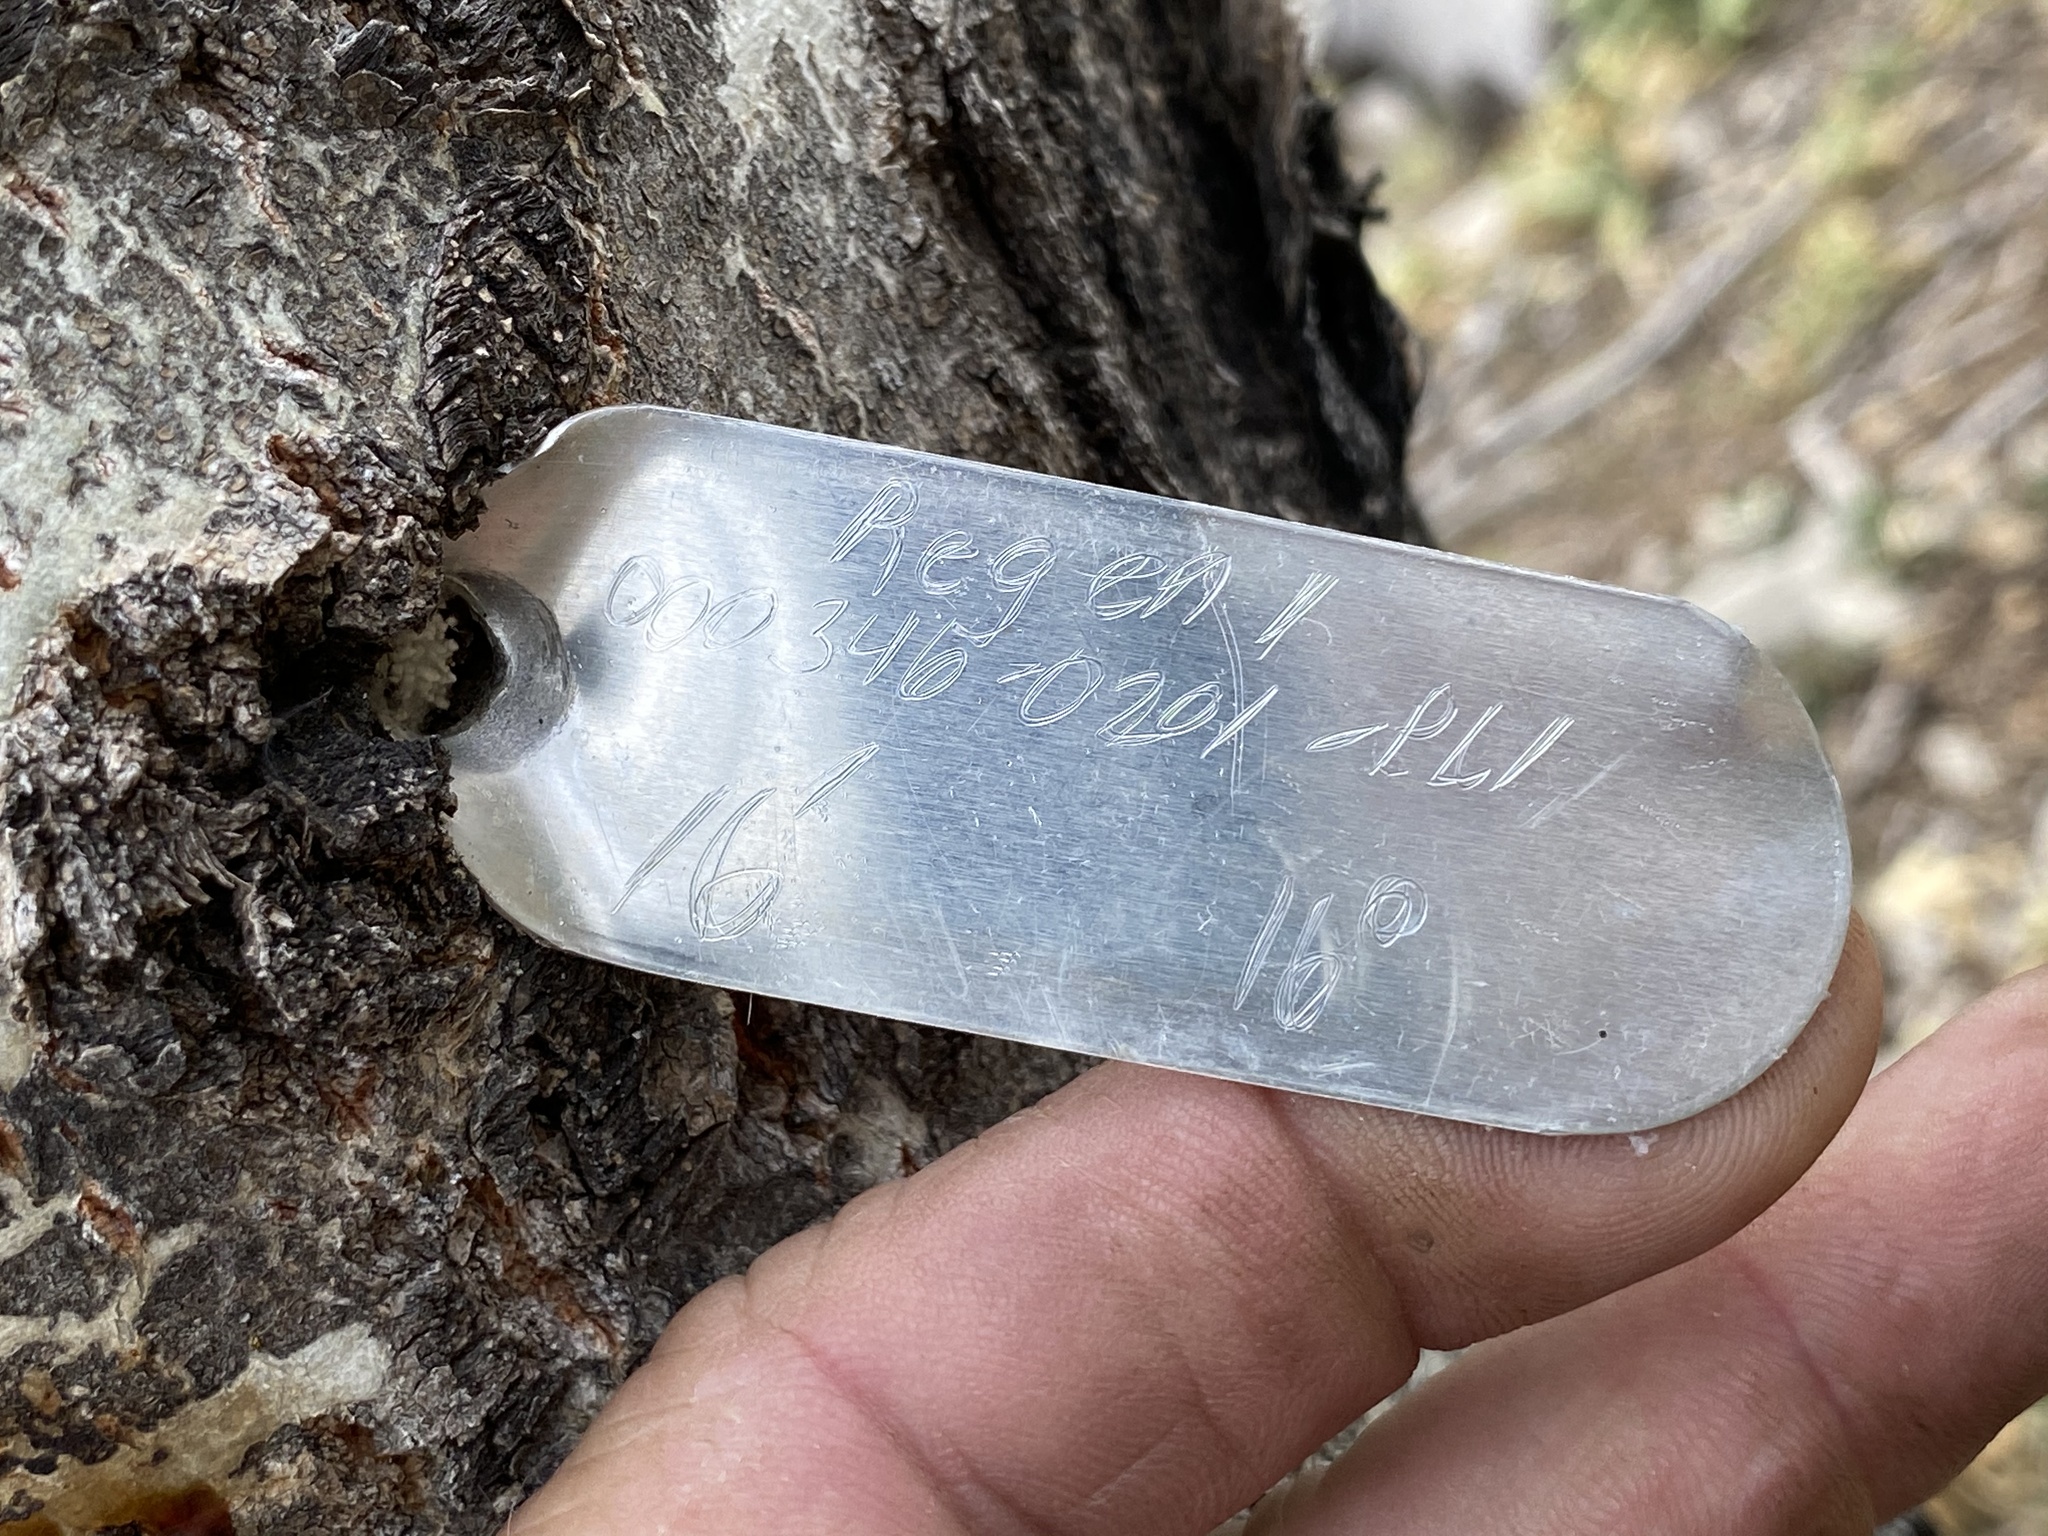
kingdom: Plantae
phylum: Tracheophyta
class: Magnoliopsida
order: Malpighiales
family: Salicaceae
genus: Populus
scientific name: Populus tremuloides
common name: Quaking aspen
